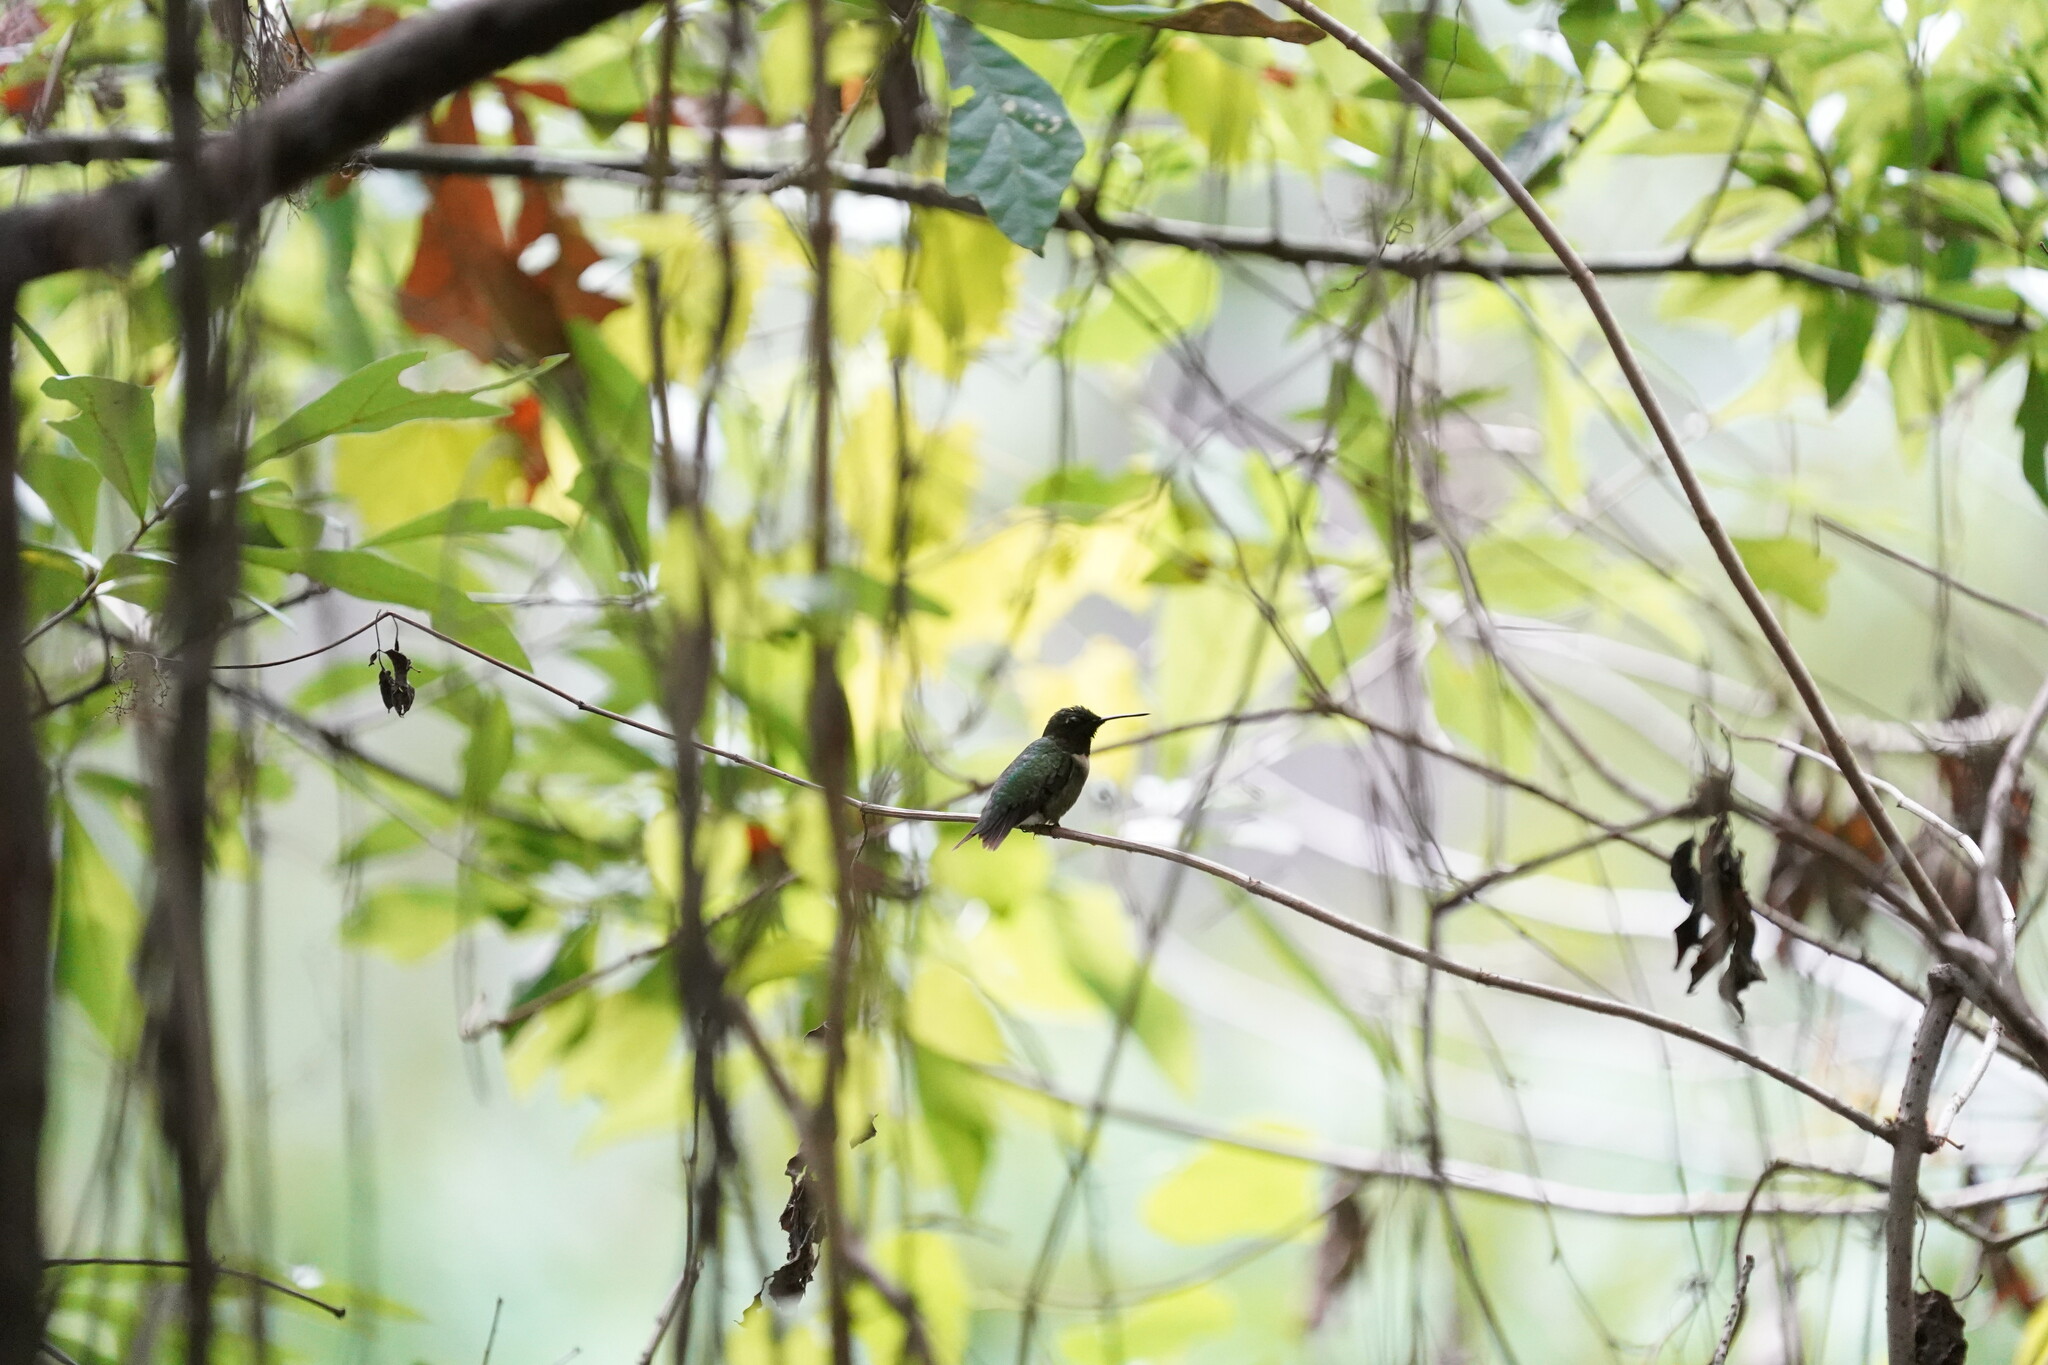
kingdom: Animalia
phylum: Chordata
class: Aves
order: Apodiformes
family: Trochilidae
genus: Archilochus
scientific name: Archilochus colubris
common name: Ruby-throated hummingbird
